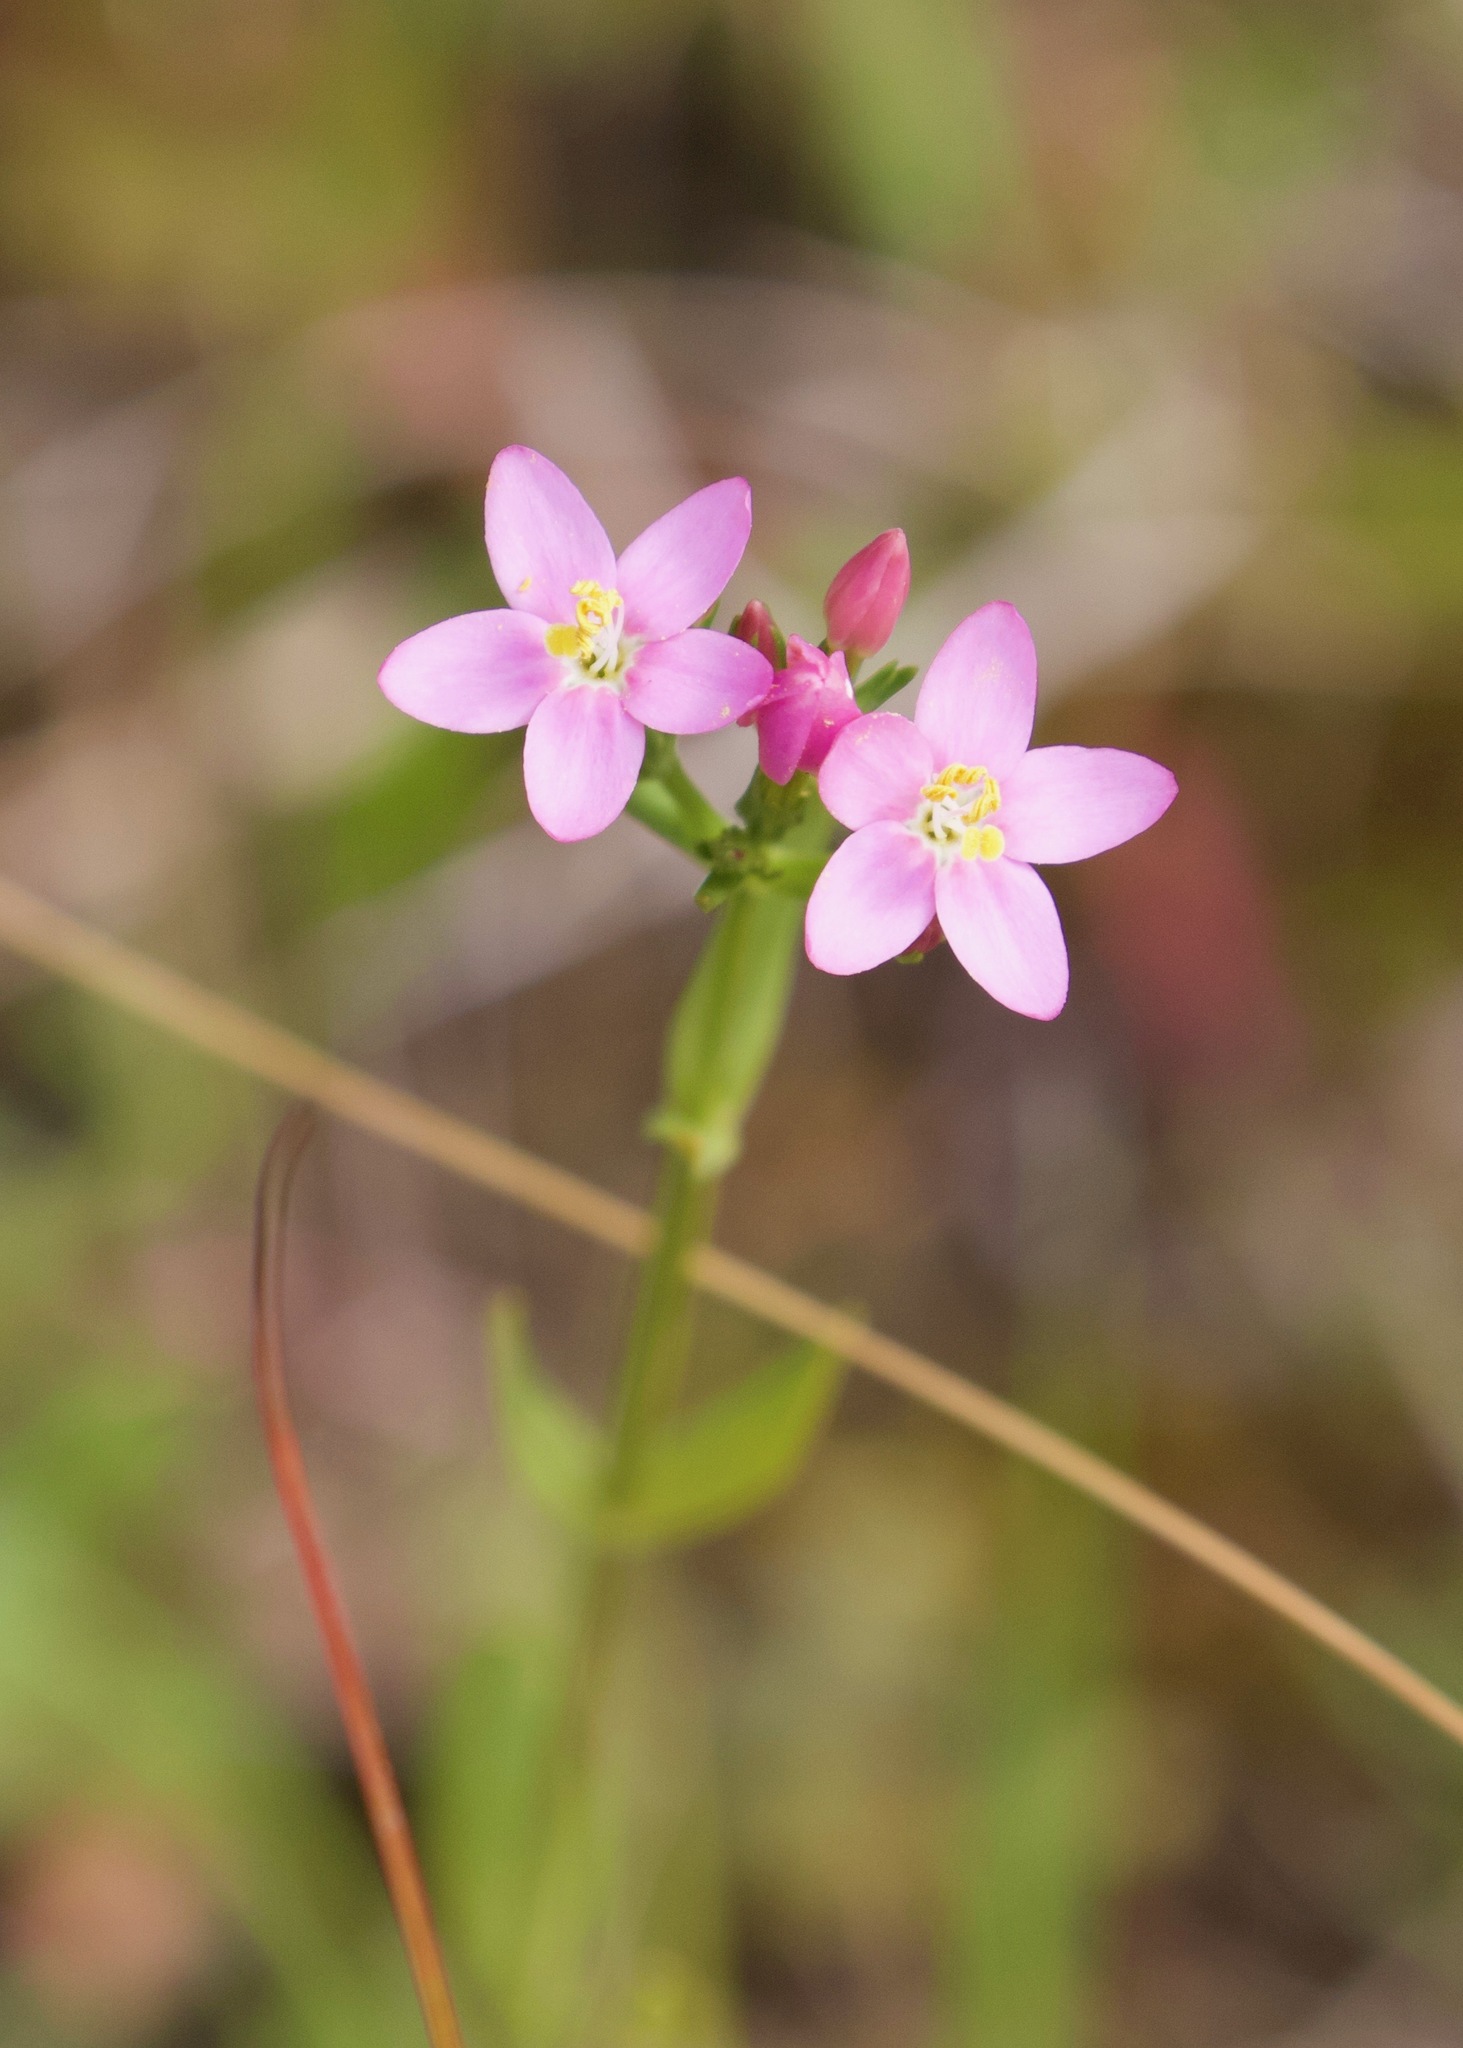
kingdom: Plantae
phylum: Tracheophyta
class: Magnoliopsida
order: Gentianales
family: Gentianaceae
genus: Centaurium
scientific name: Centaurium erythraea
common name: Common centaury
